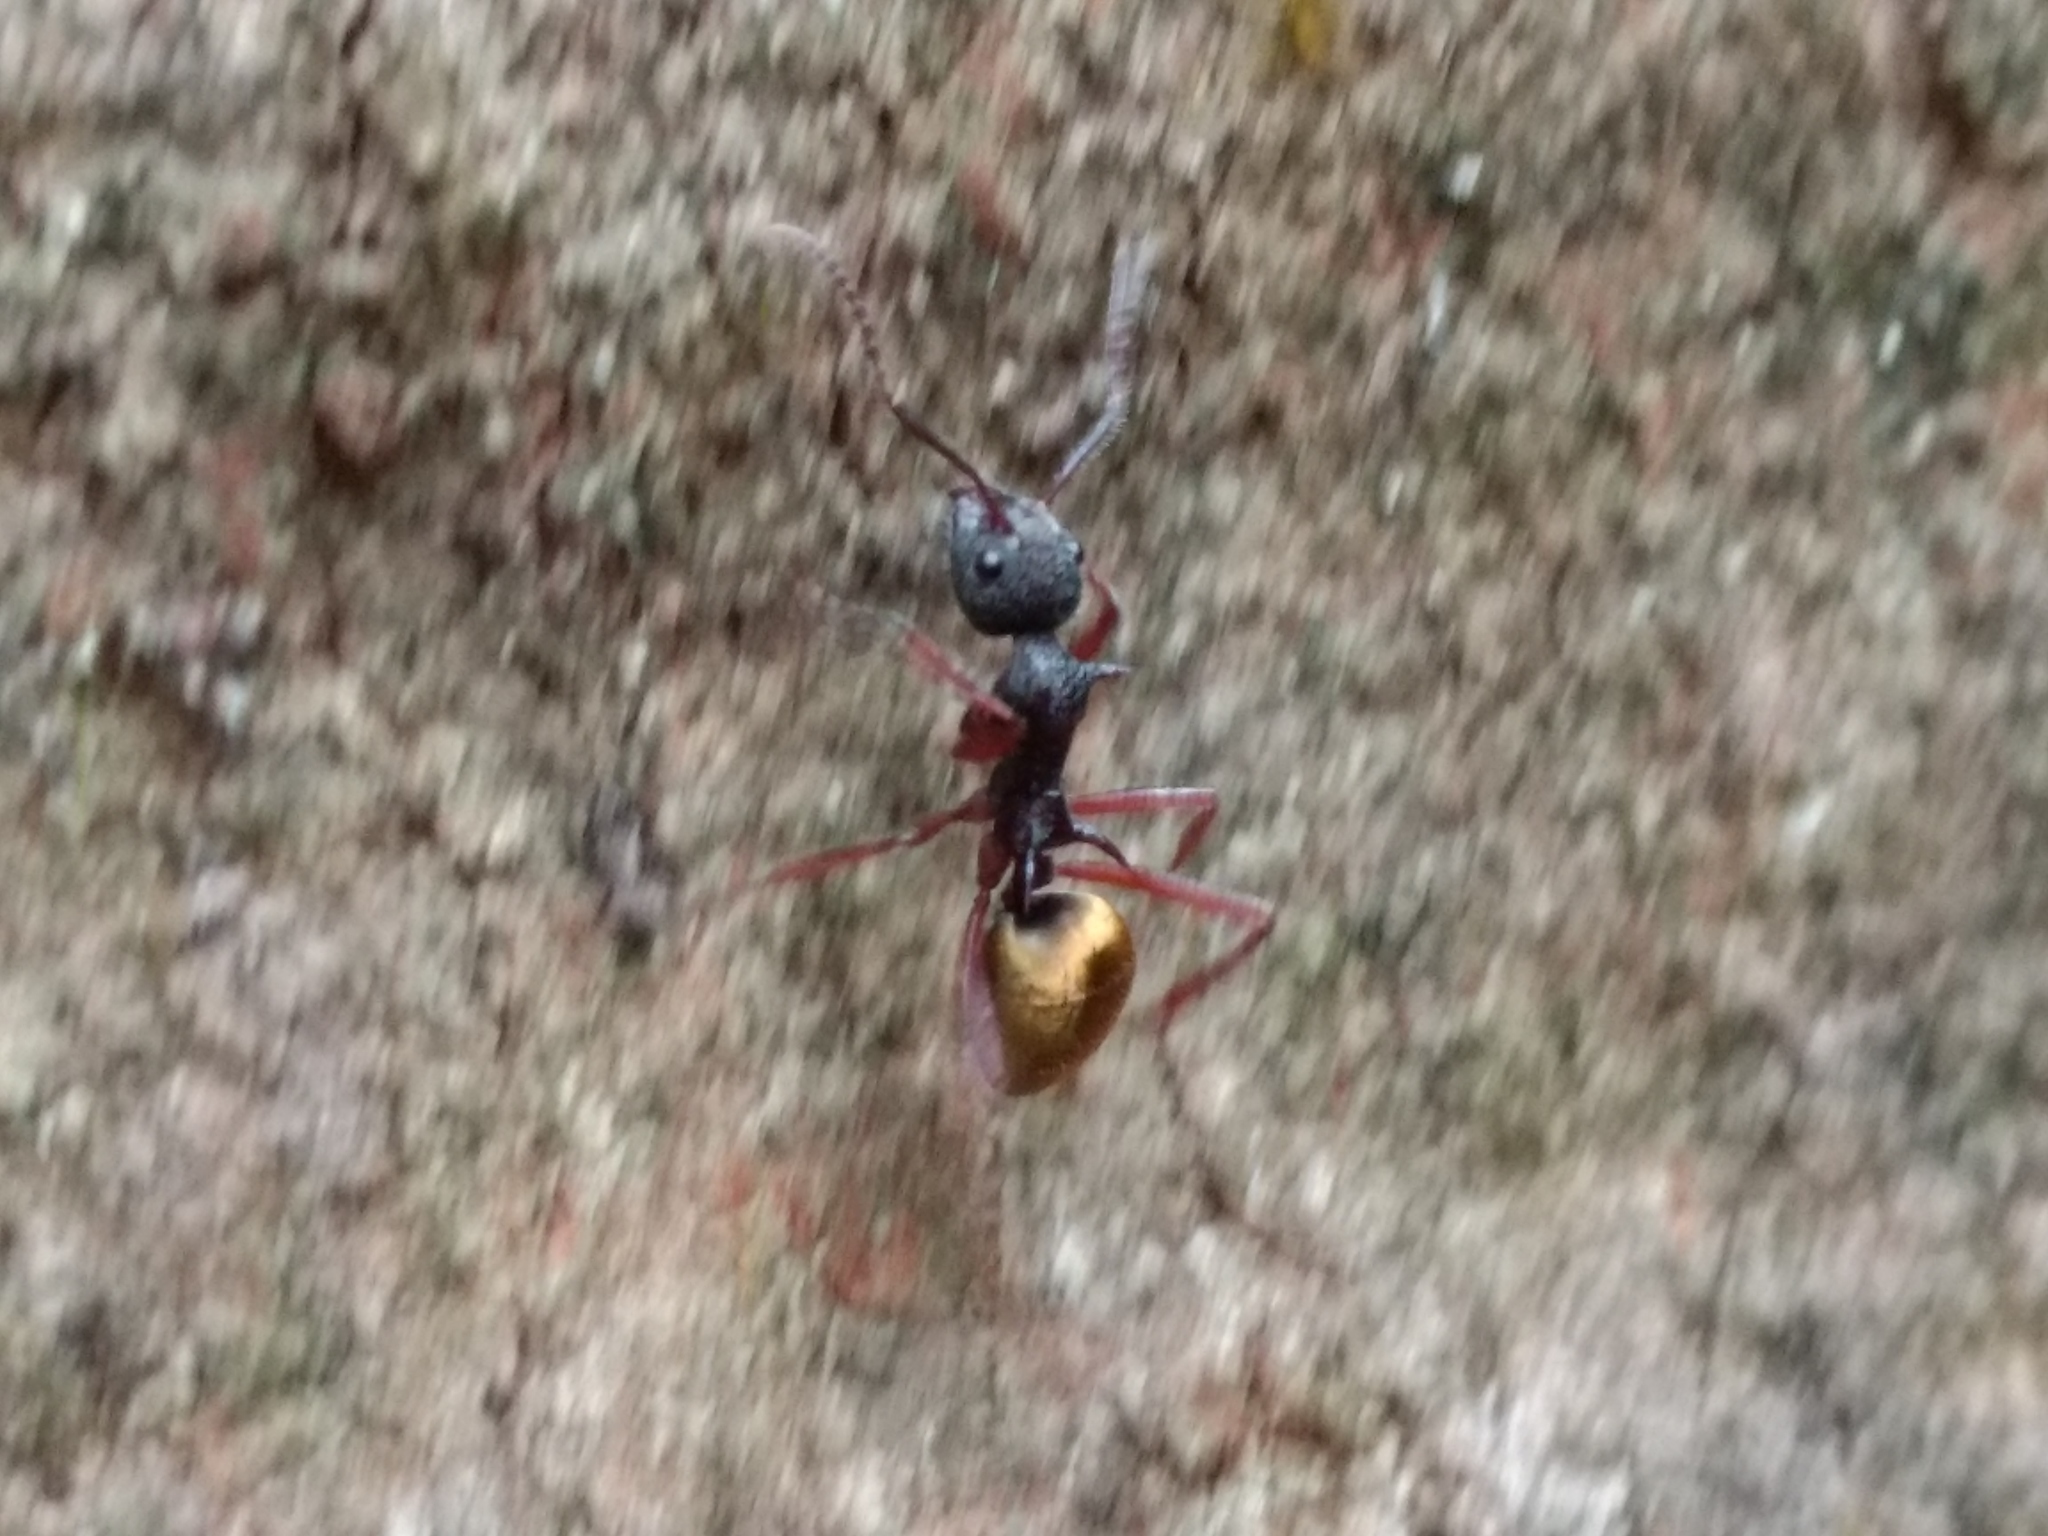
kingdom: Animalia
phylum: Arthropoda
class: Insecta
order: Hymenoptera
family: Formicidae
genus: Dolichoderus
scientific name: Dolichoderus extensispinus
